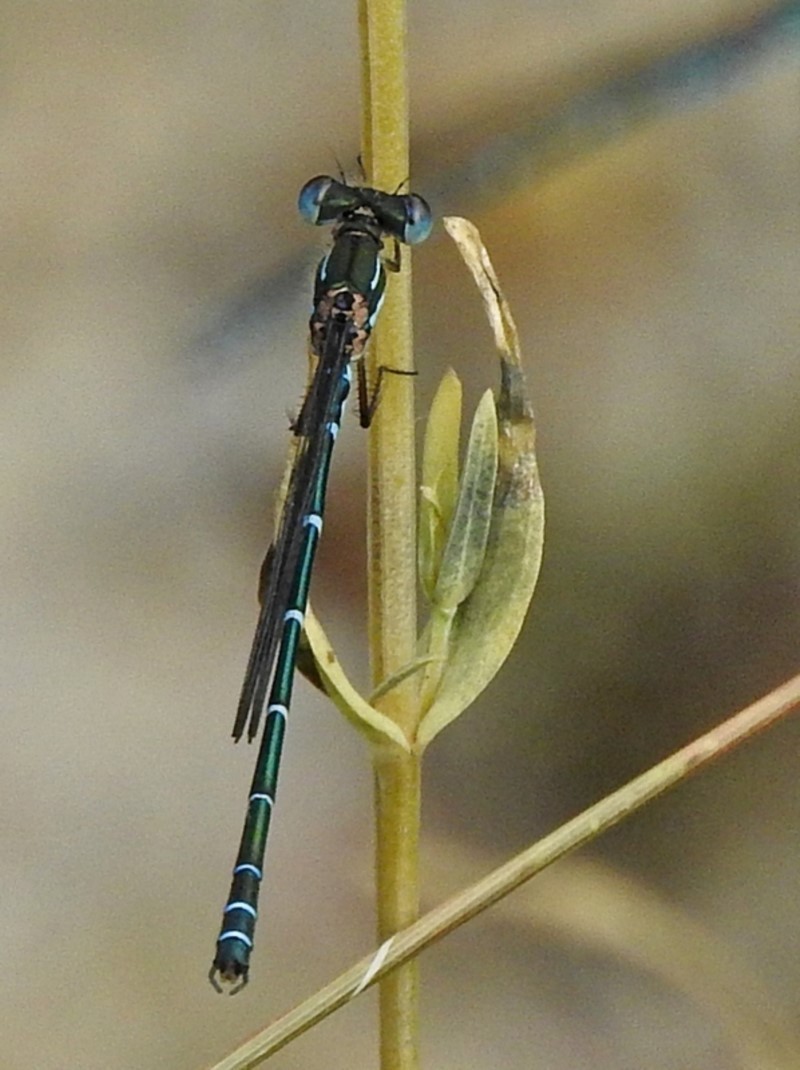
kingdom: Animalia
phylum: Arthropoda
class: Insecta
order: Odonata
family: Lestidae
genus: Austrolestes
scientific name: Austrolestes psyche
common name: Cup ringtail
